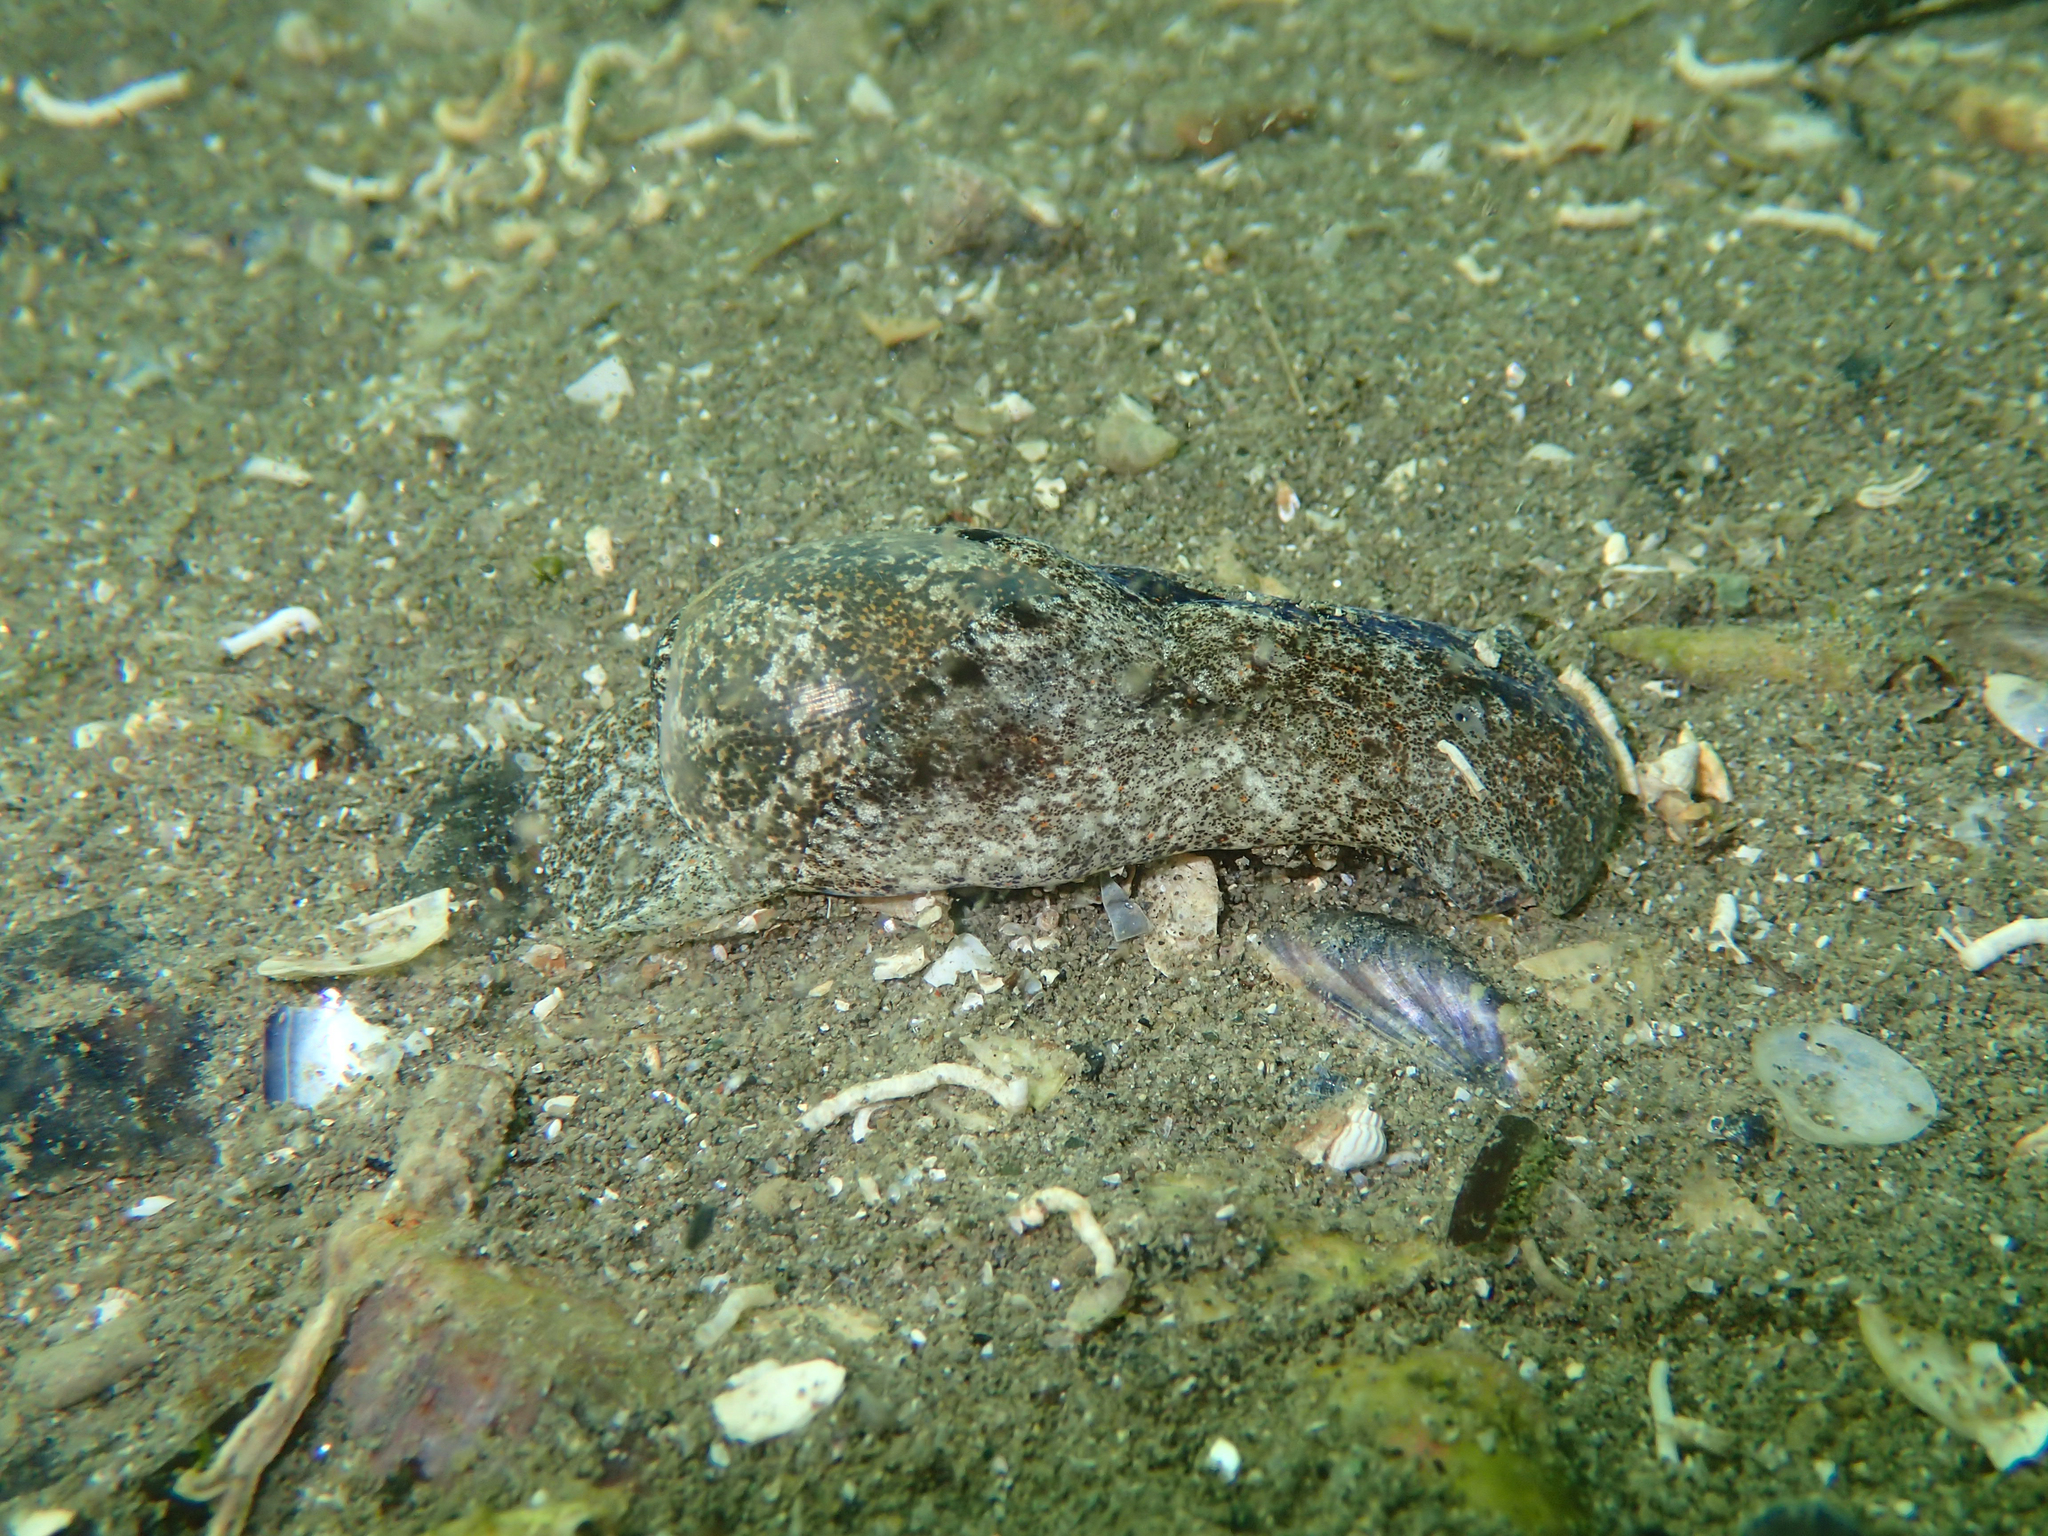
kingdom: Animalia
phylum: Mollusca
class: Gastropoda
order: Cephalaspidea
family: Haminoeidae
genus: Haminoea
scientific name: Haminoea navicula
